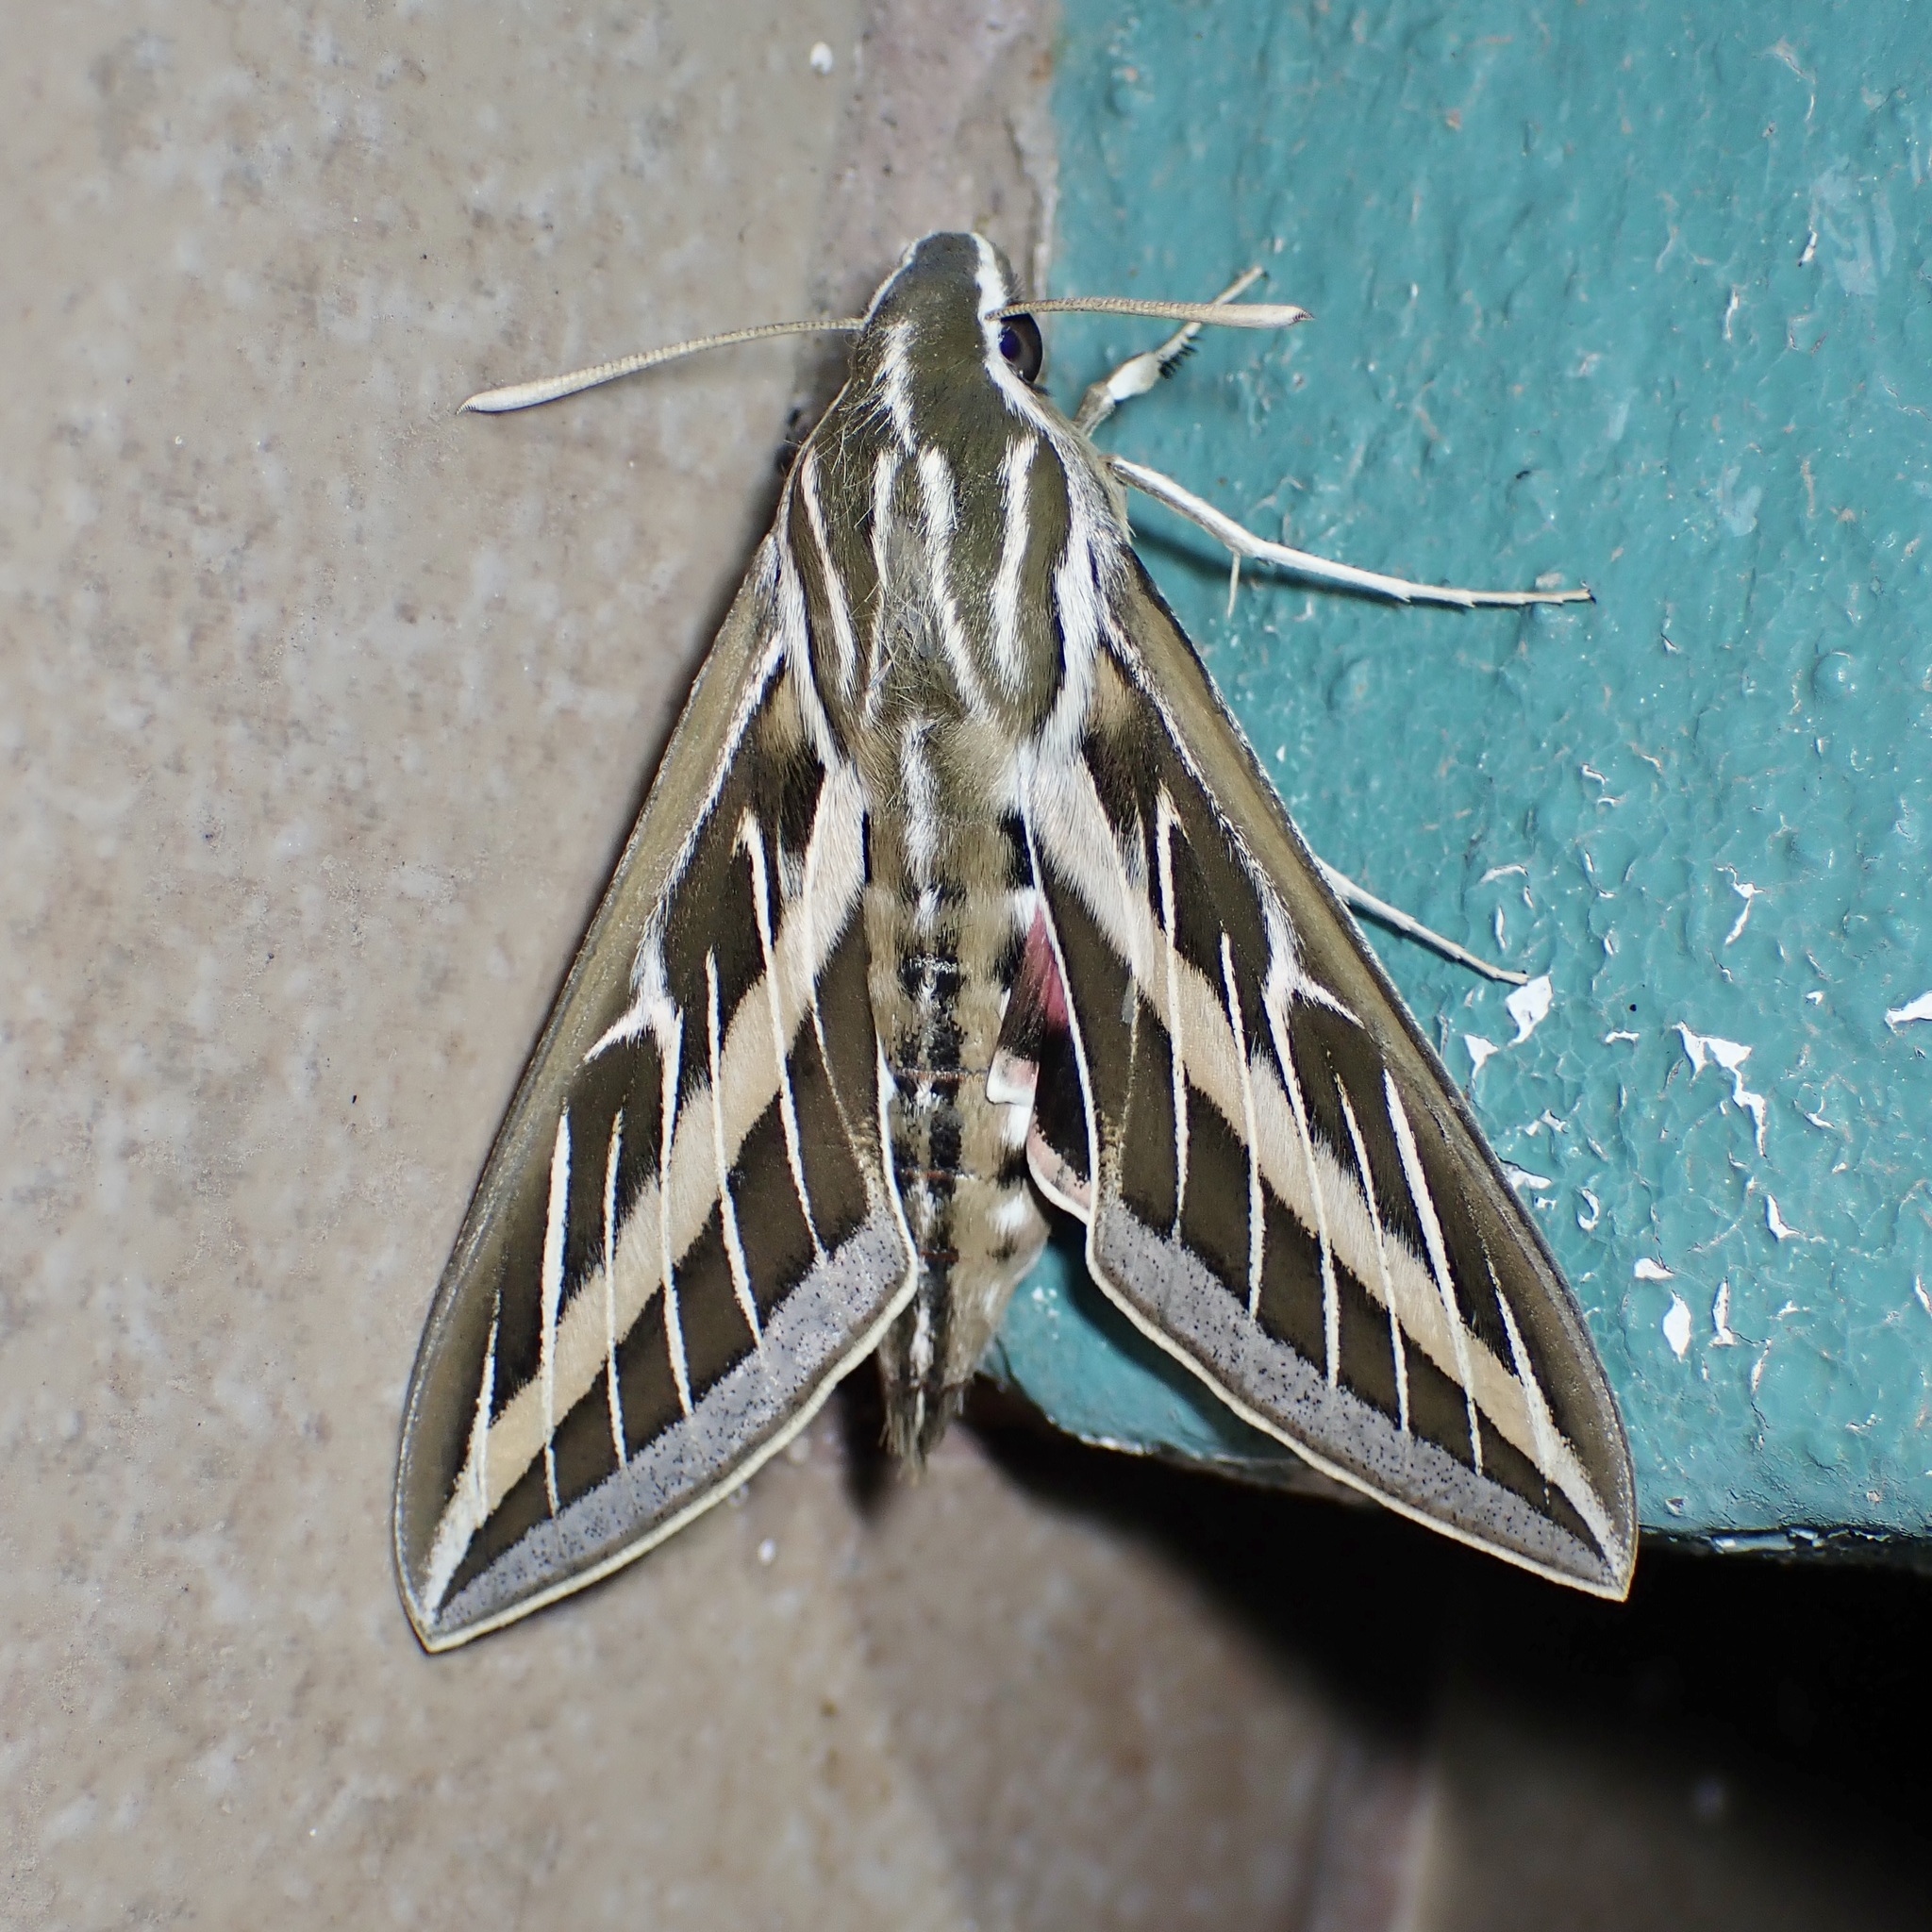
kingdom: Animalia
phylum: Arthropoda
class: Insecta
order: Lepidoptera
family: Sphingidae
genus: Hyles
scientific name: Hyles lineata
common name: White-lined sphinx
